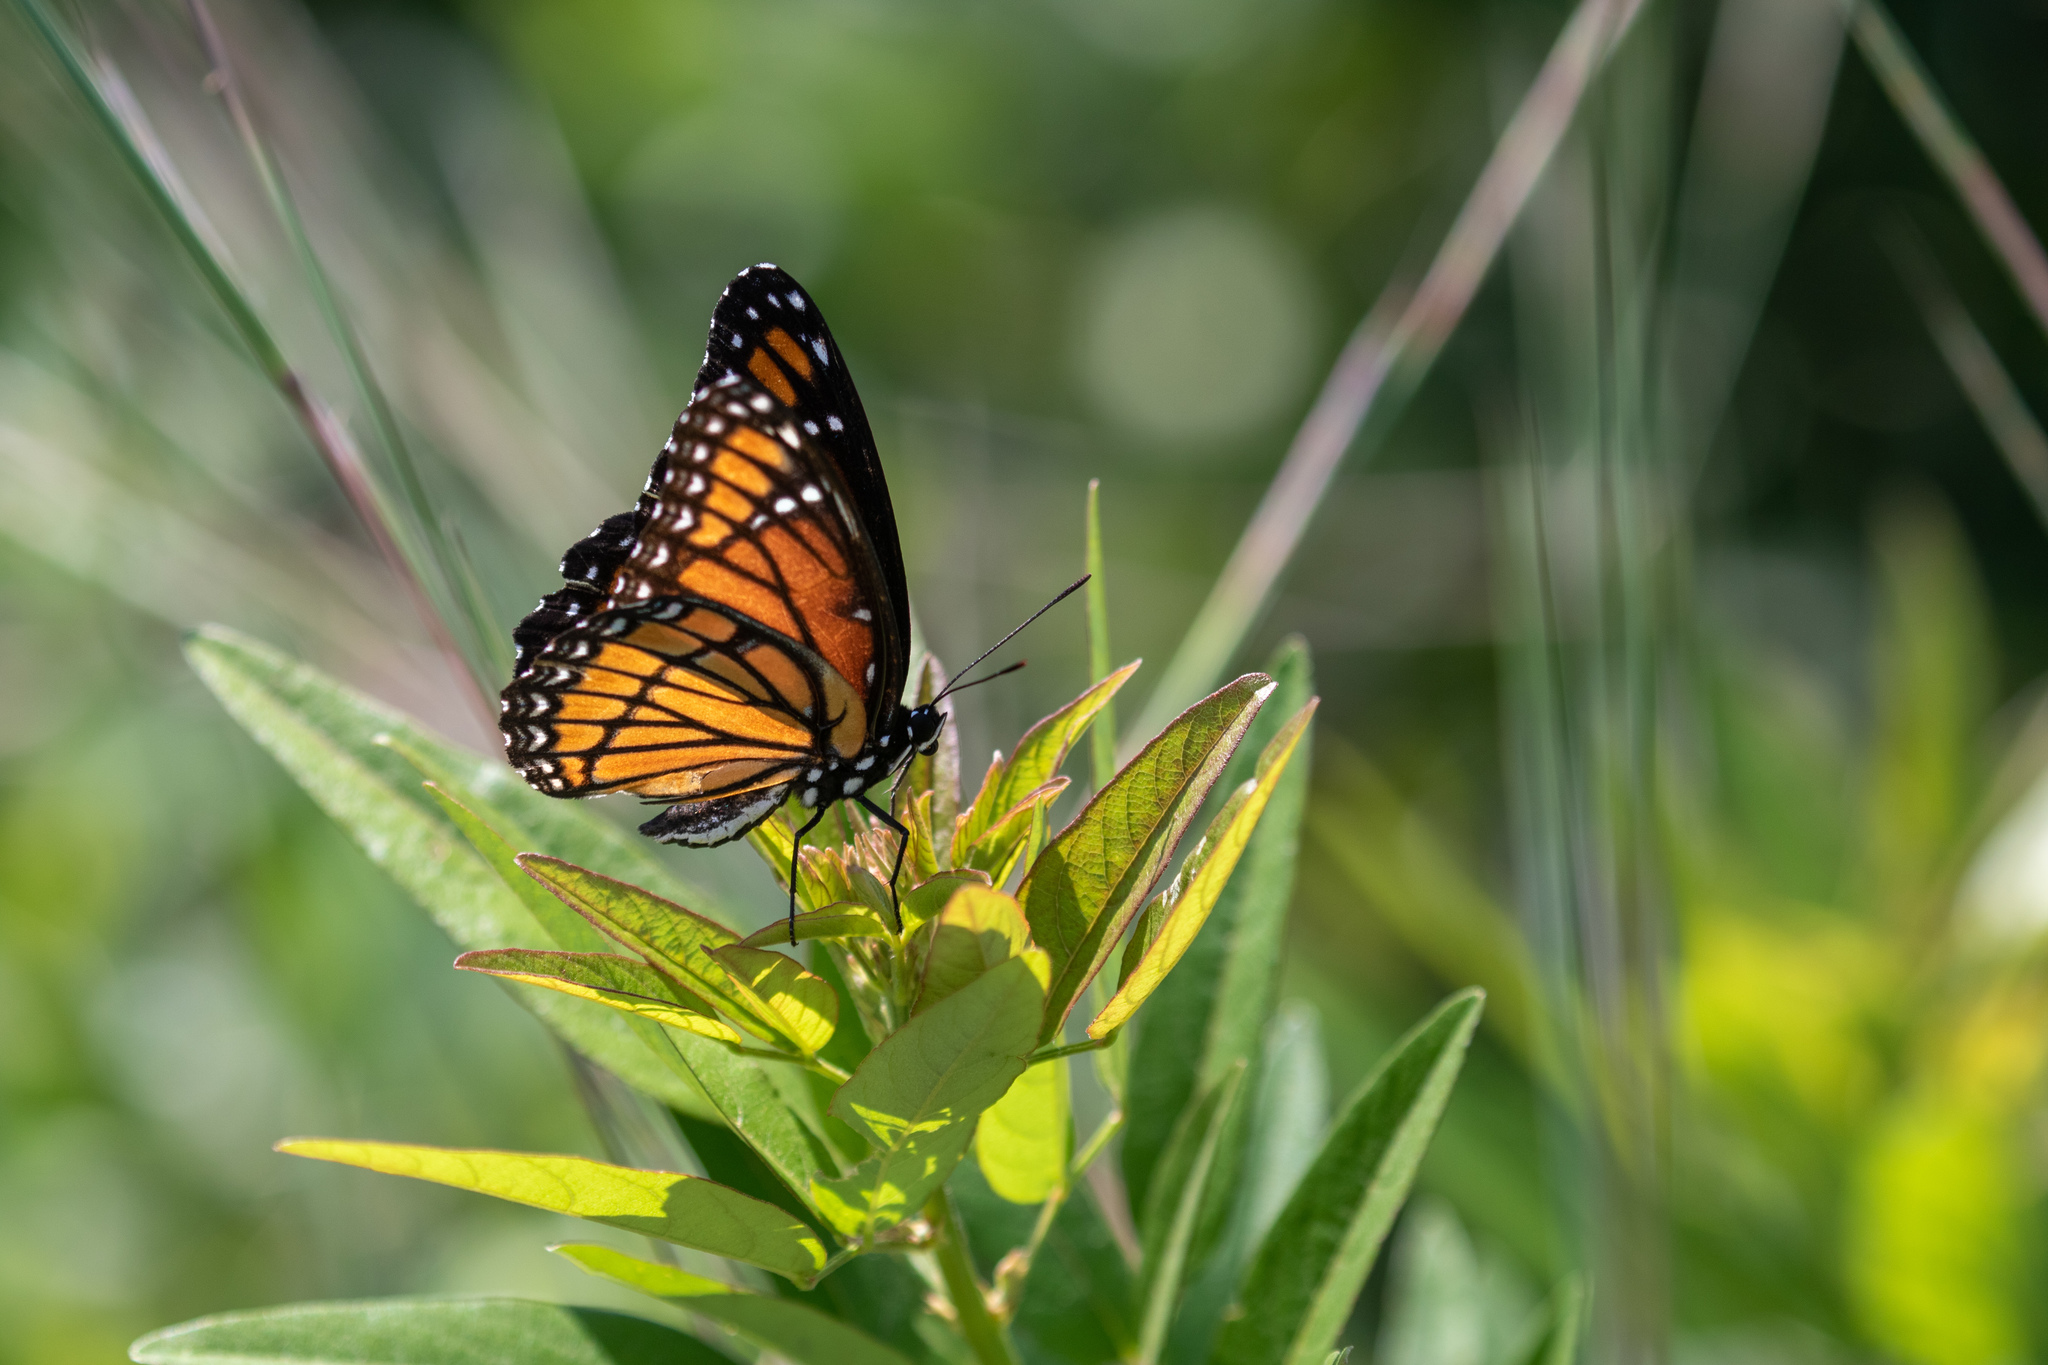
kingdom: Animalia
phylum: Arthropoda
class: Insecta
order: Lepidoptera
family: Nymphalidae
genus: Limenitis
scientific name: Limenitis archippus
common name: Viceroy
